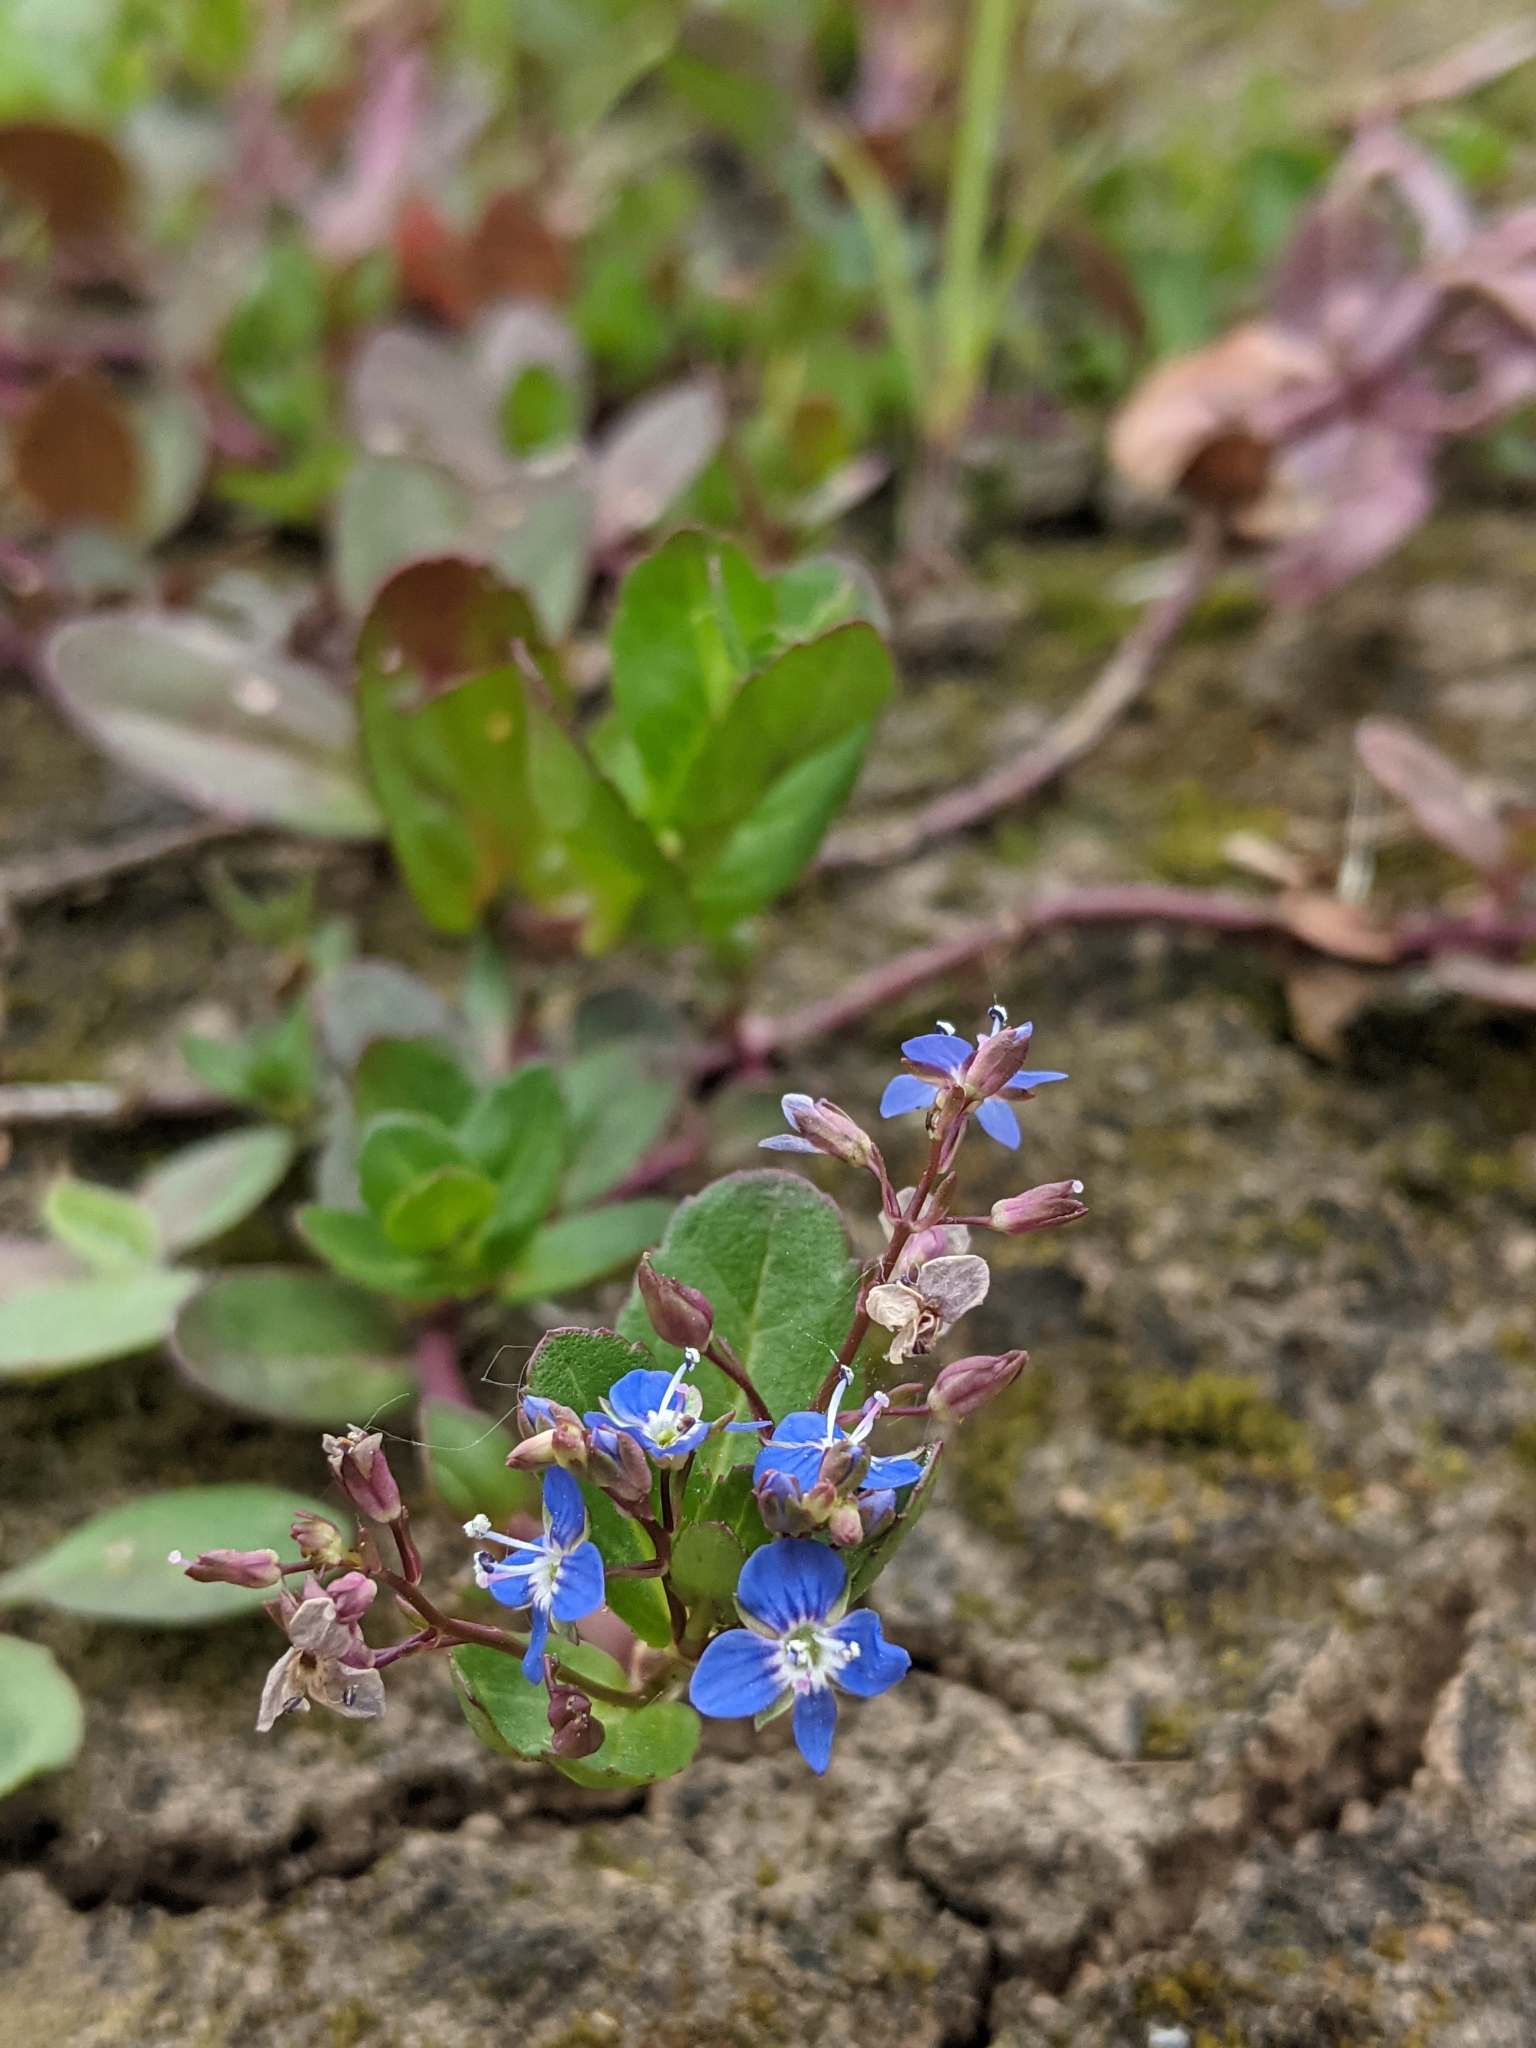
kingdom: Plantae
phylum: Tracheophyta
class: Magnoliopsida
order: Lamiales
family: Plantaginaceae
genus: Veronica
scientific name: Veronica beccabunga
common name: Brooklime
